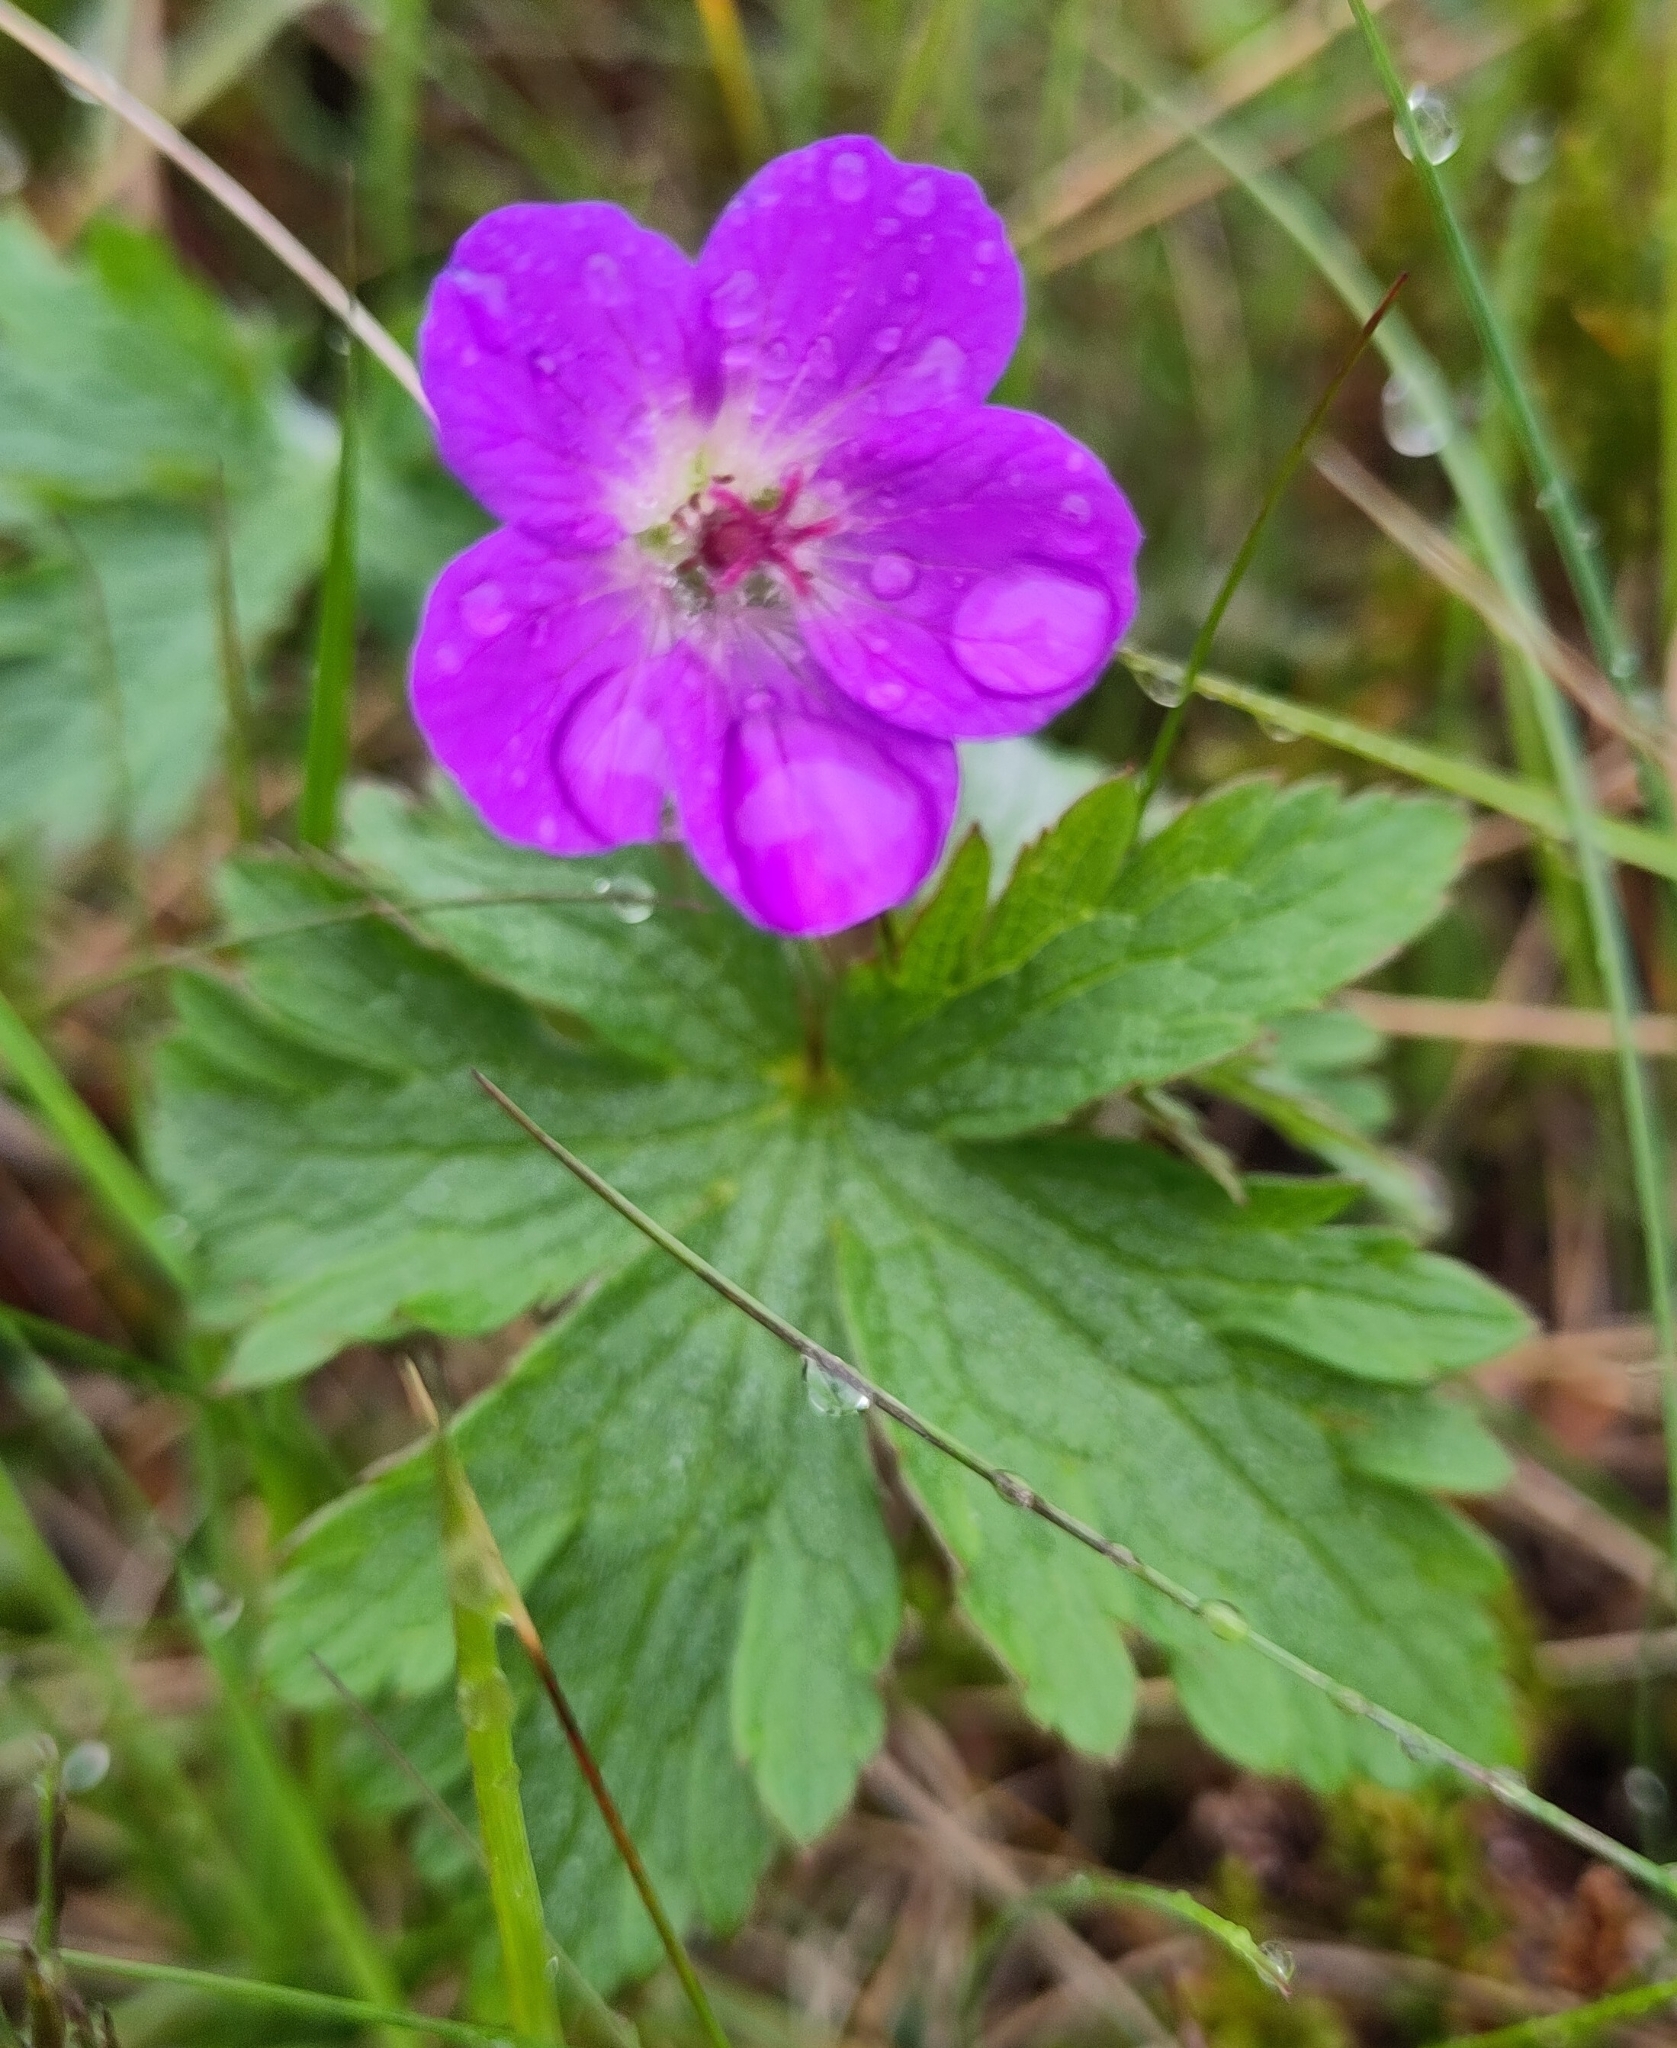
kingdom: Plantae
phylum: Tracheophyta
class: Magnoliopsida
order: Geraniales
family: Geraniaceae
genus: Geranium
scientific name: Geranium sylvaticum
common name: Wood crane's-bill
